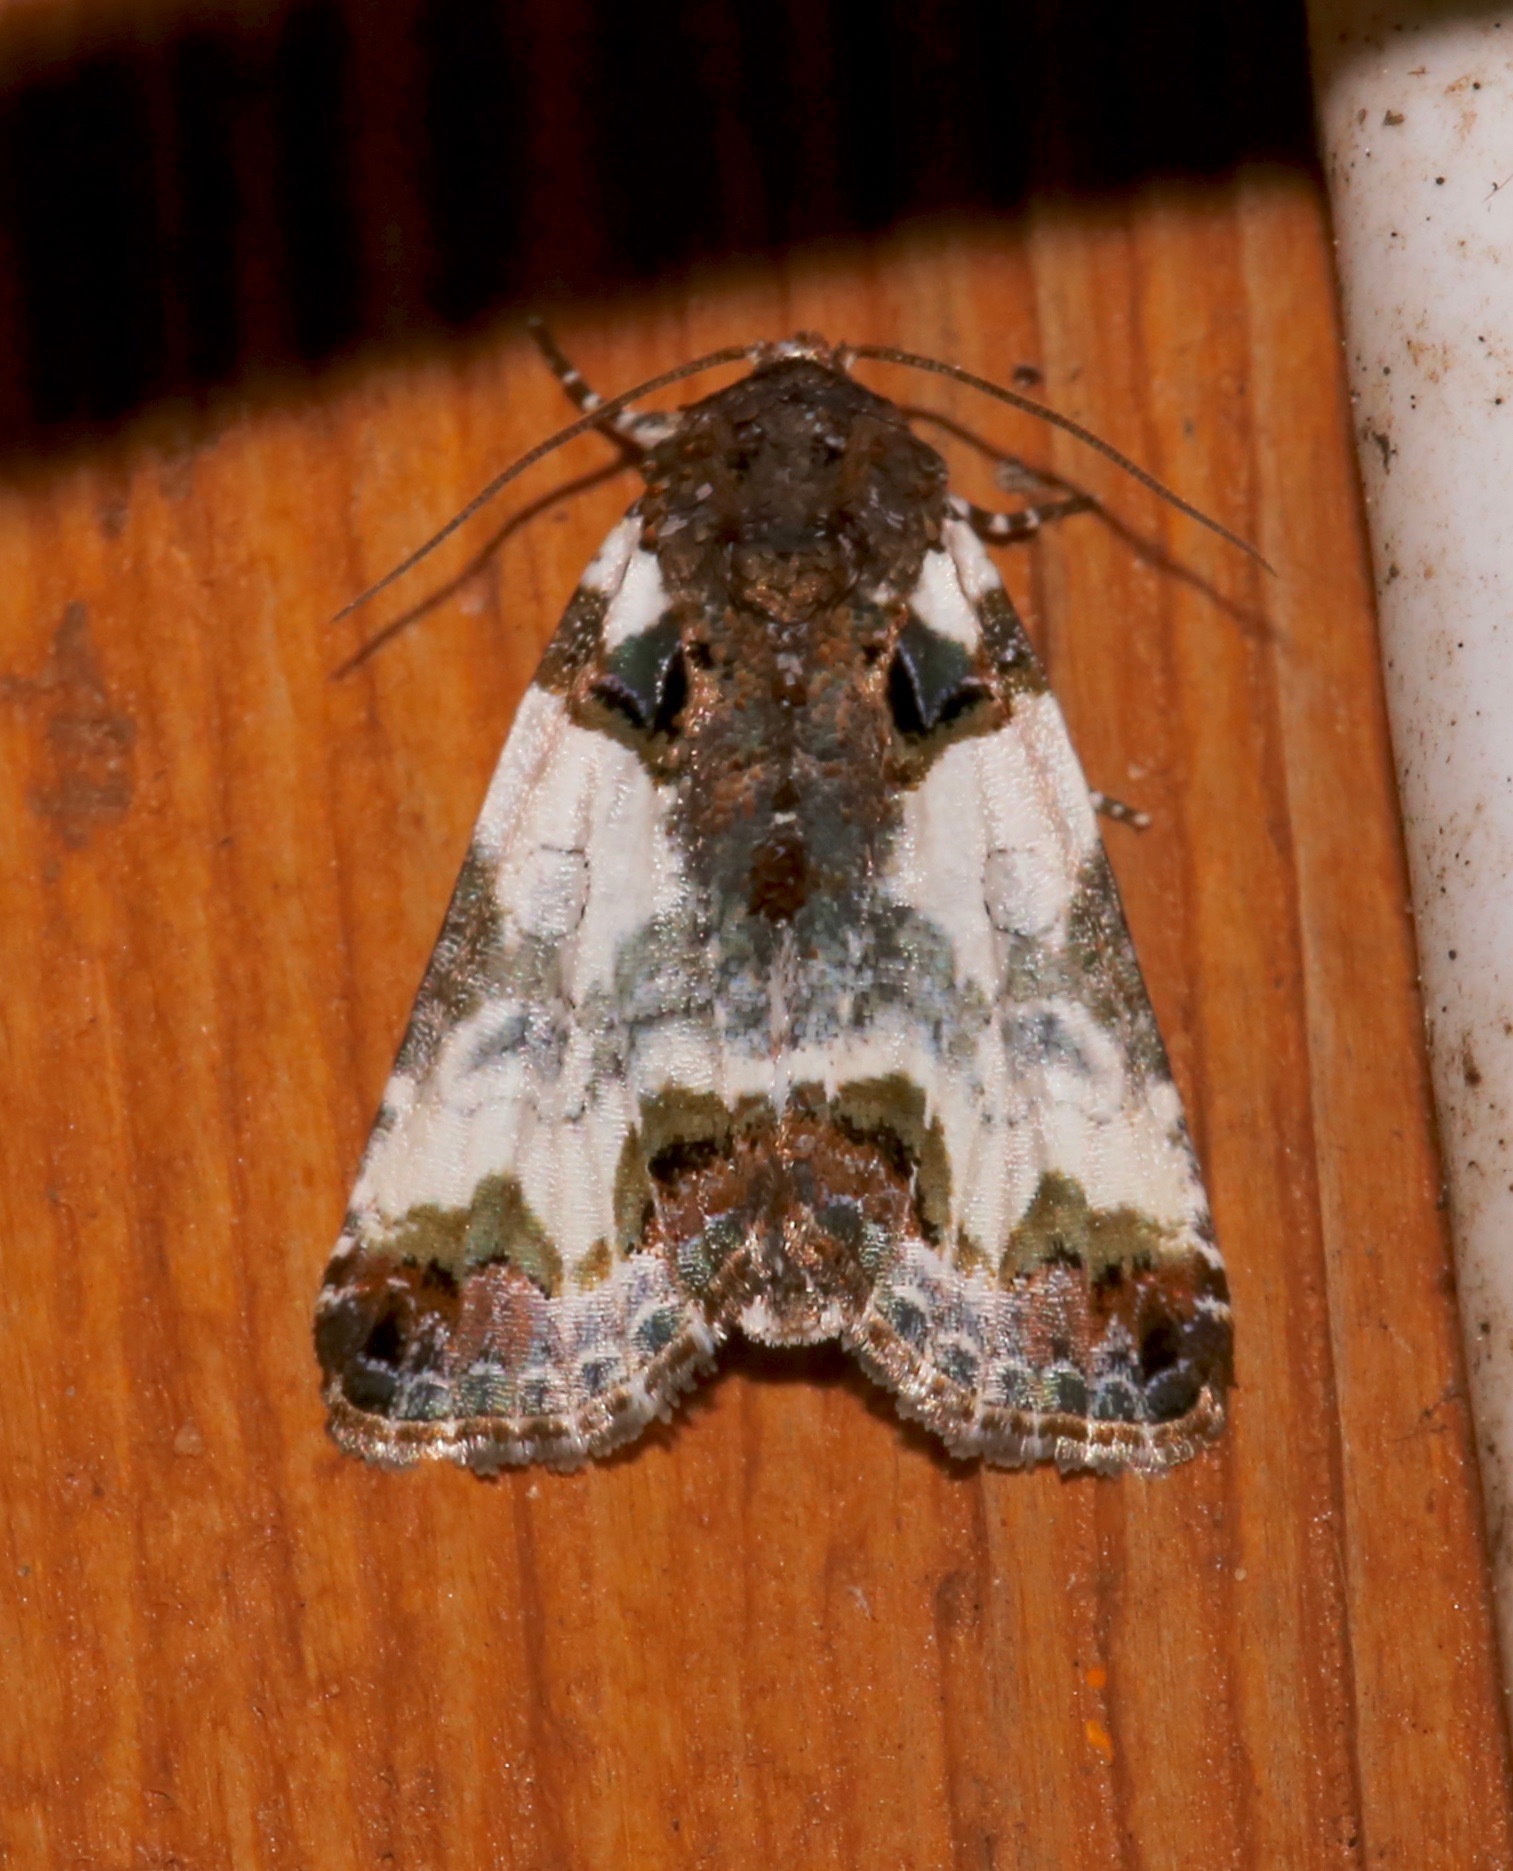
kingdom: Animalia
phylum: Arthropoda
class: Insecta
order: Lepidoptera
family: Noctuidae
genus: Cerma
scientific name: Cerma cerintha
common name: Tufted bird-dropping moth
